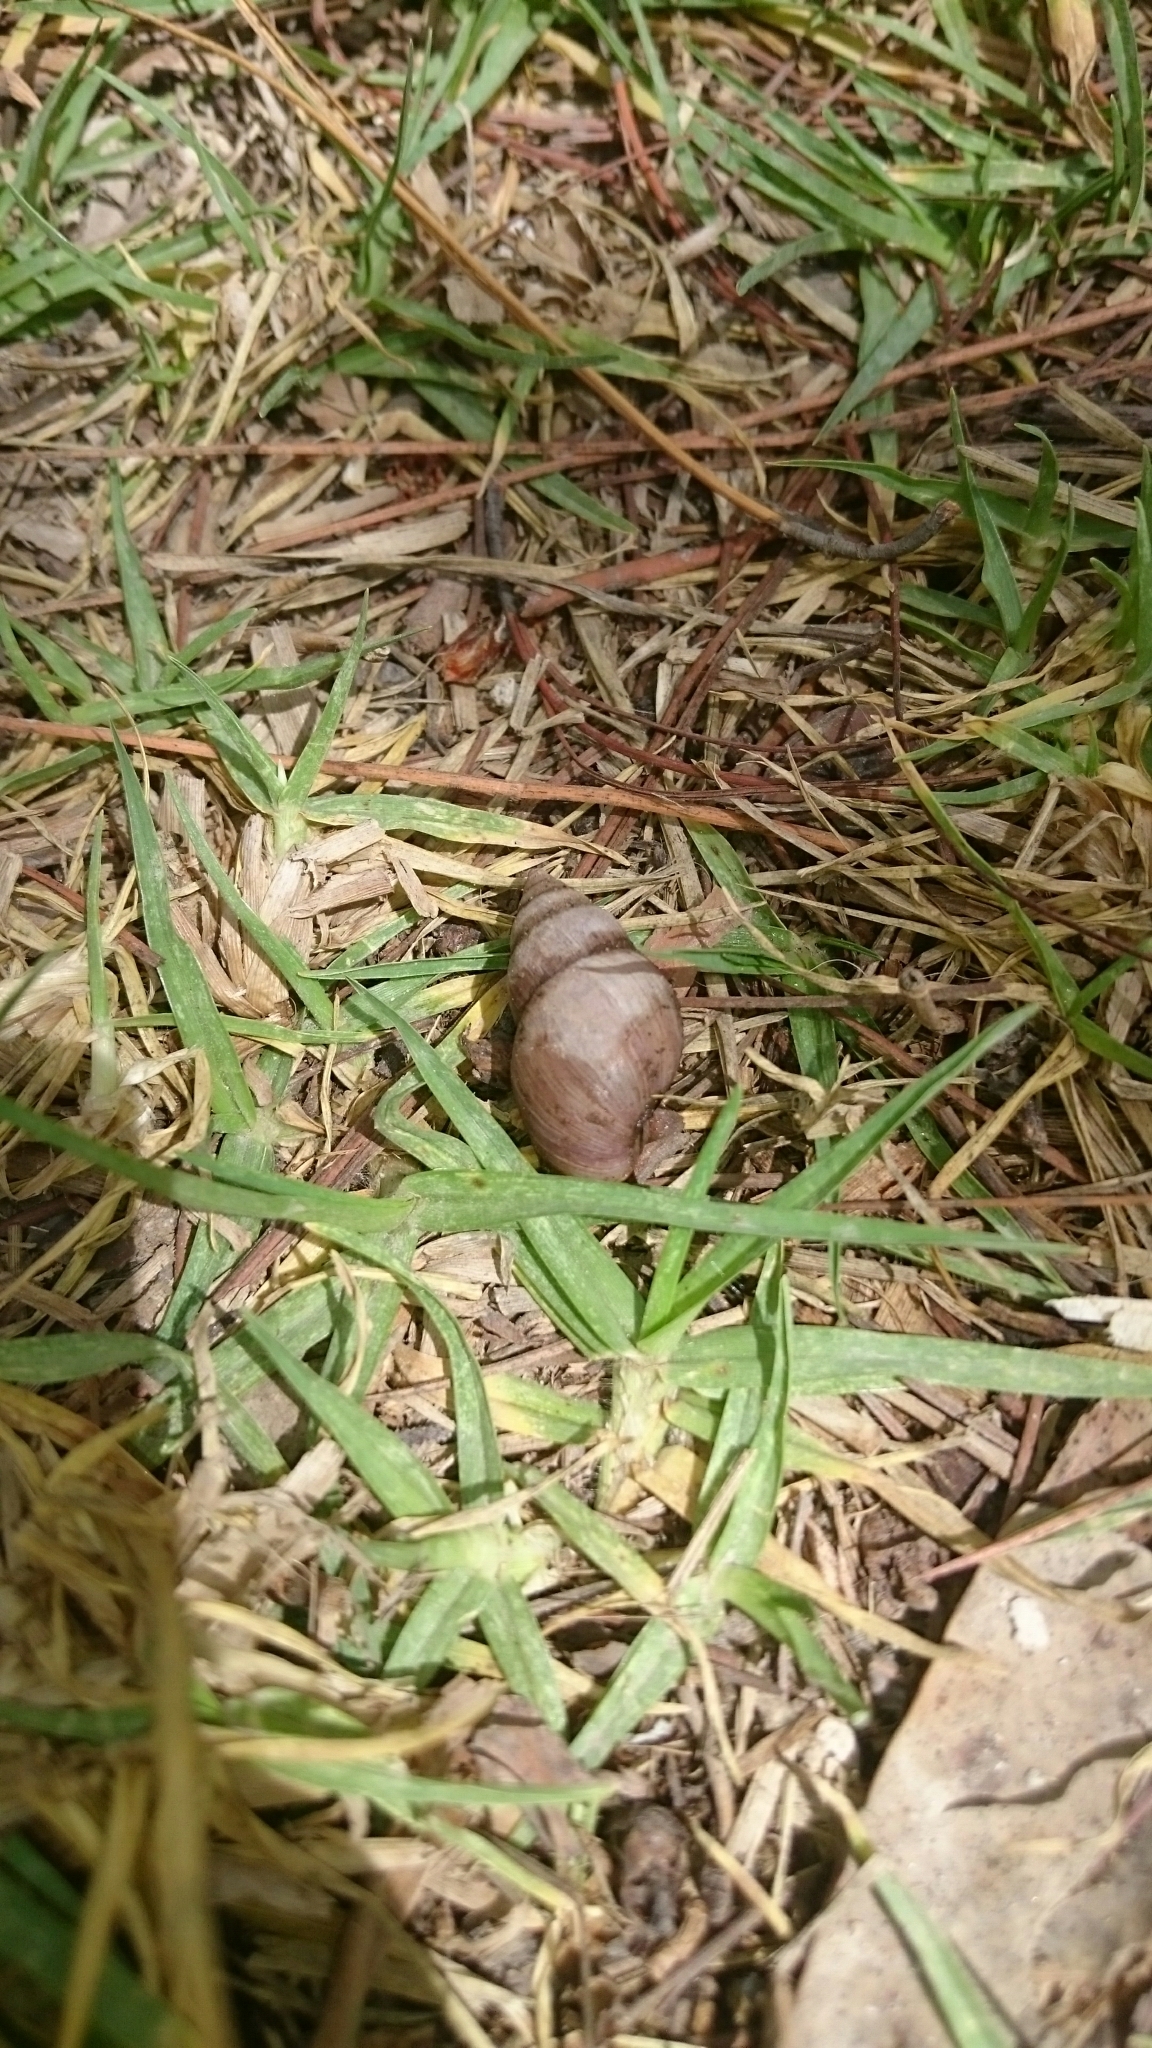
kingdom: Animalia
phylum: Mollusca
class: Gastropoda
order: Stylommatophora
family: Bulimulidae
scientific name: Bulimulidae
